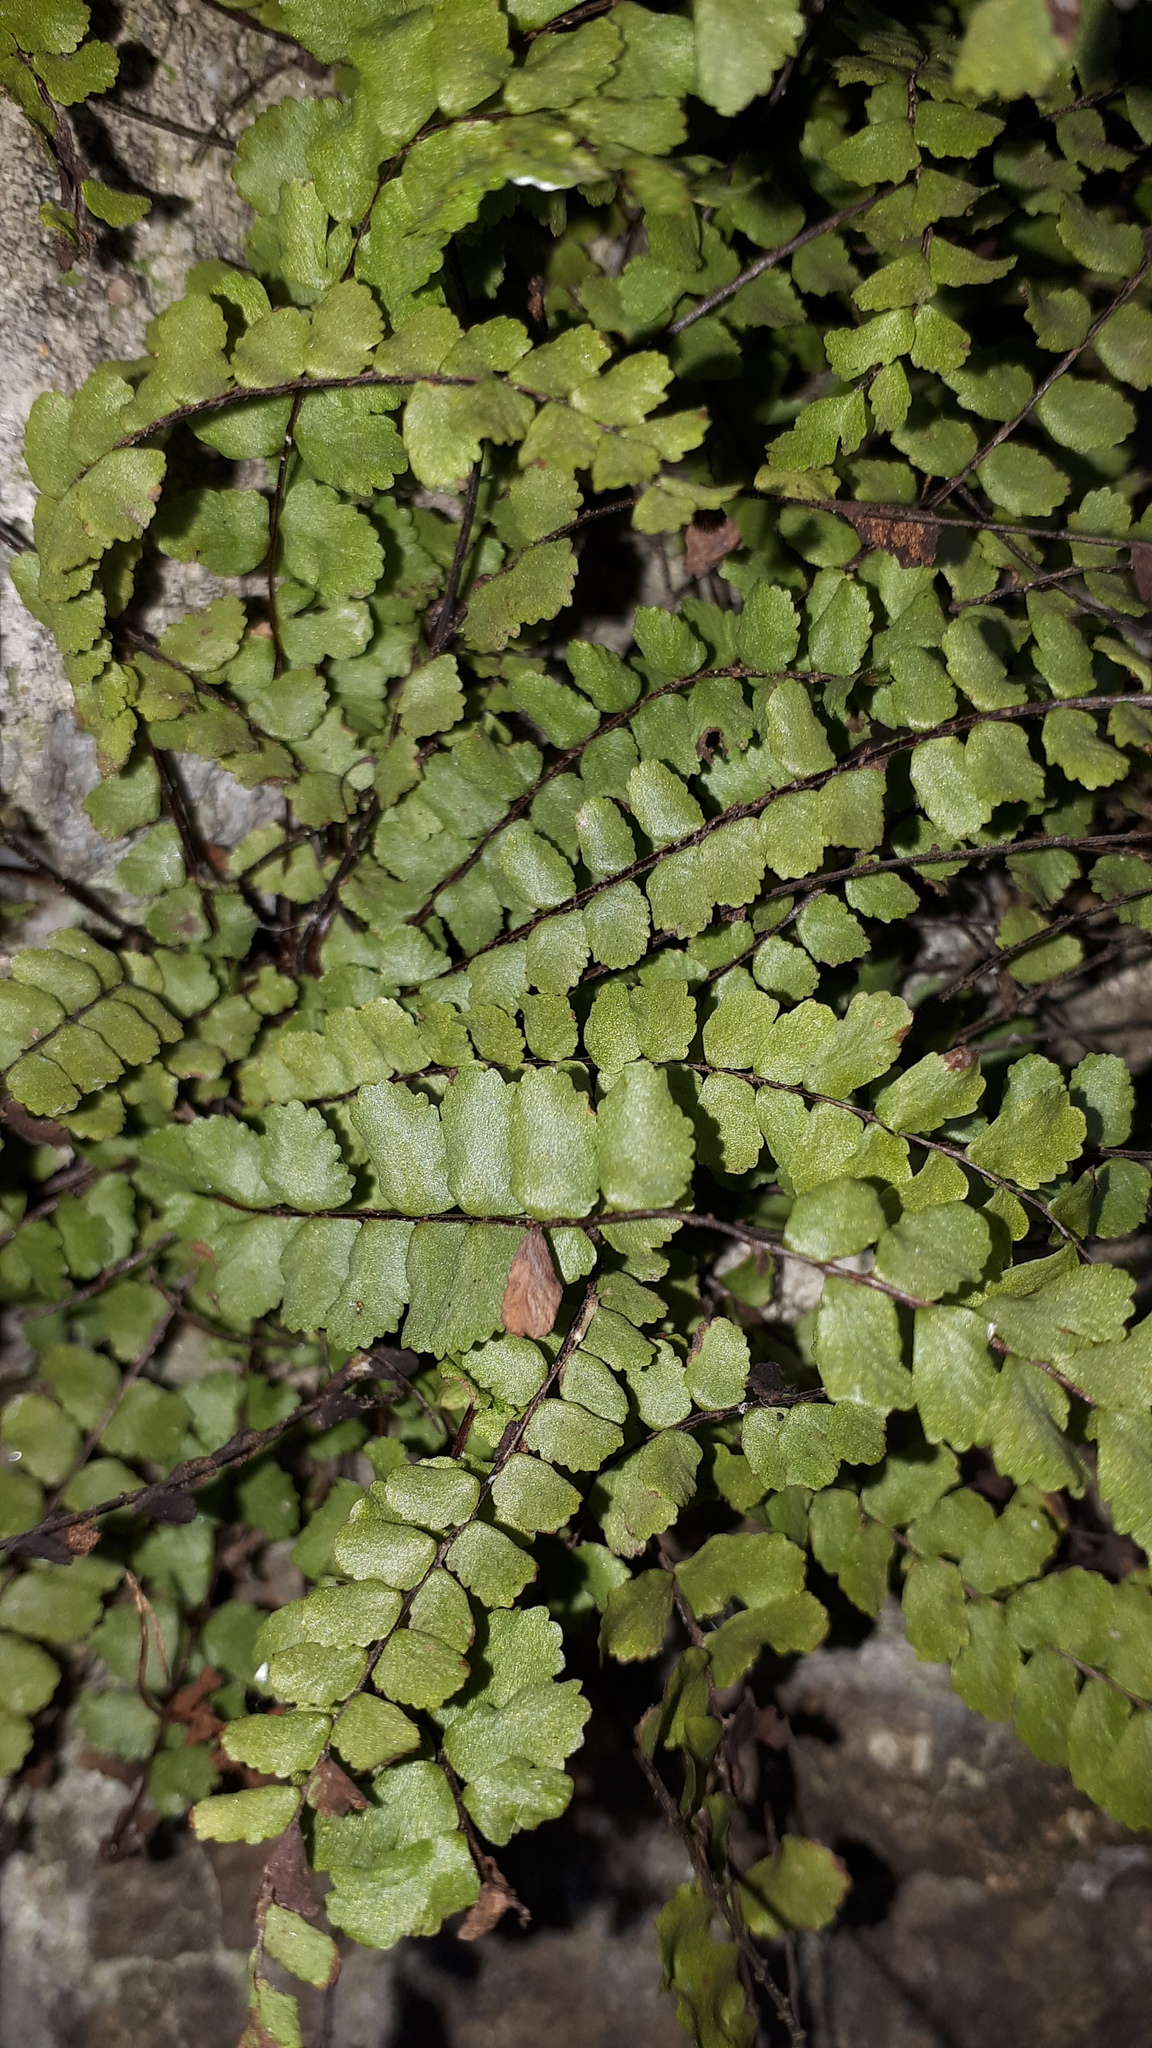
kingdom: Plantae
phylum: Tracheophyta
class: Polypodiopsida
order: Polypodiales
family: Aspleniaceae
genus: Asplenium
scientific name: Asplenium trichomanes
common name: Maidenhair spleenwort
